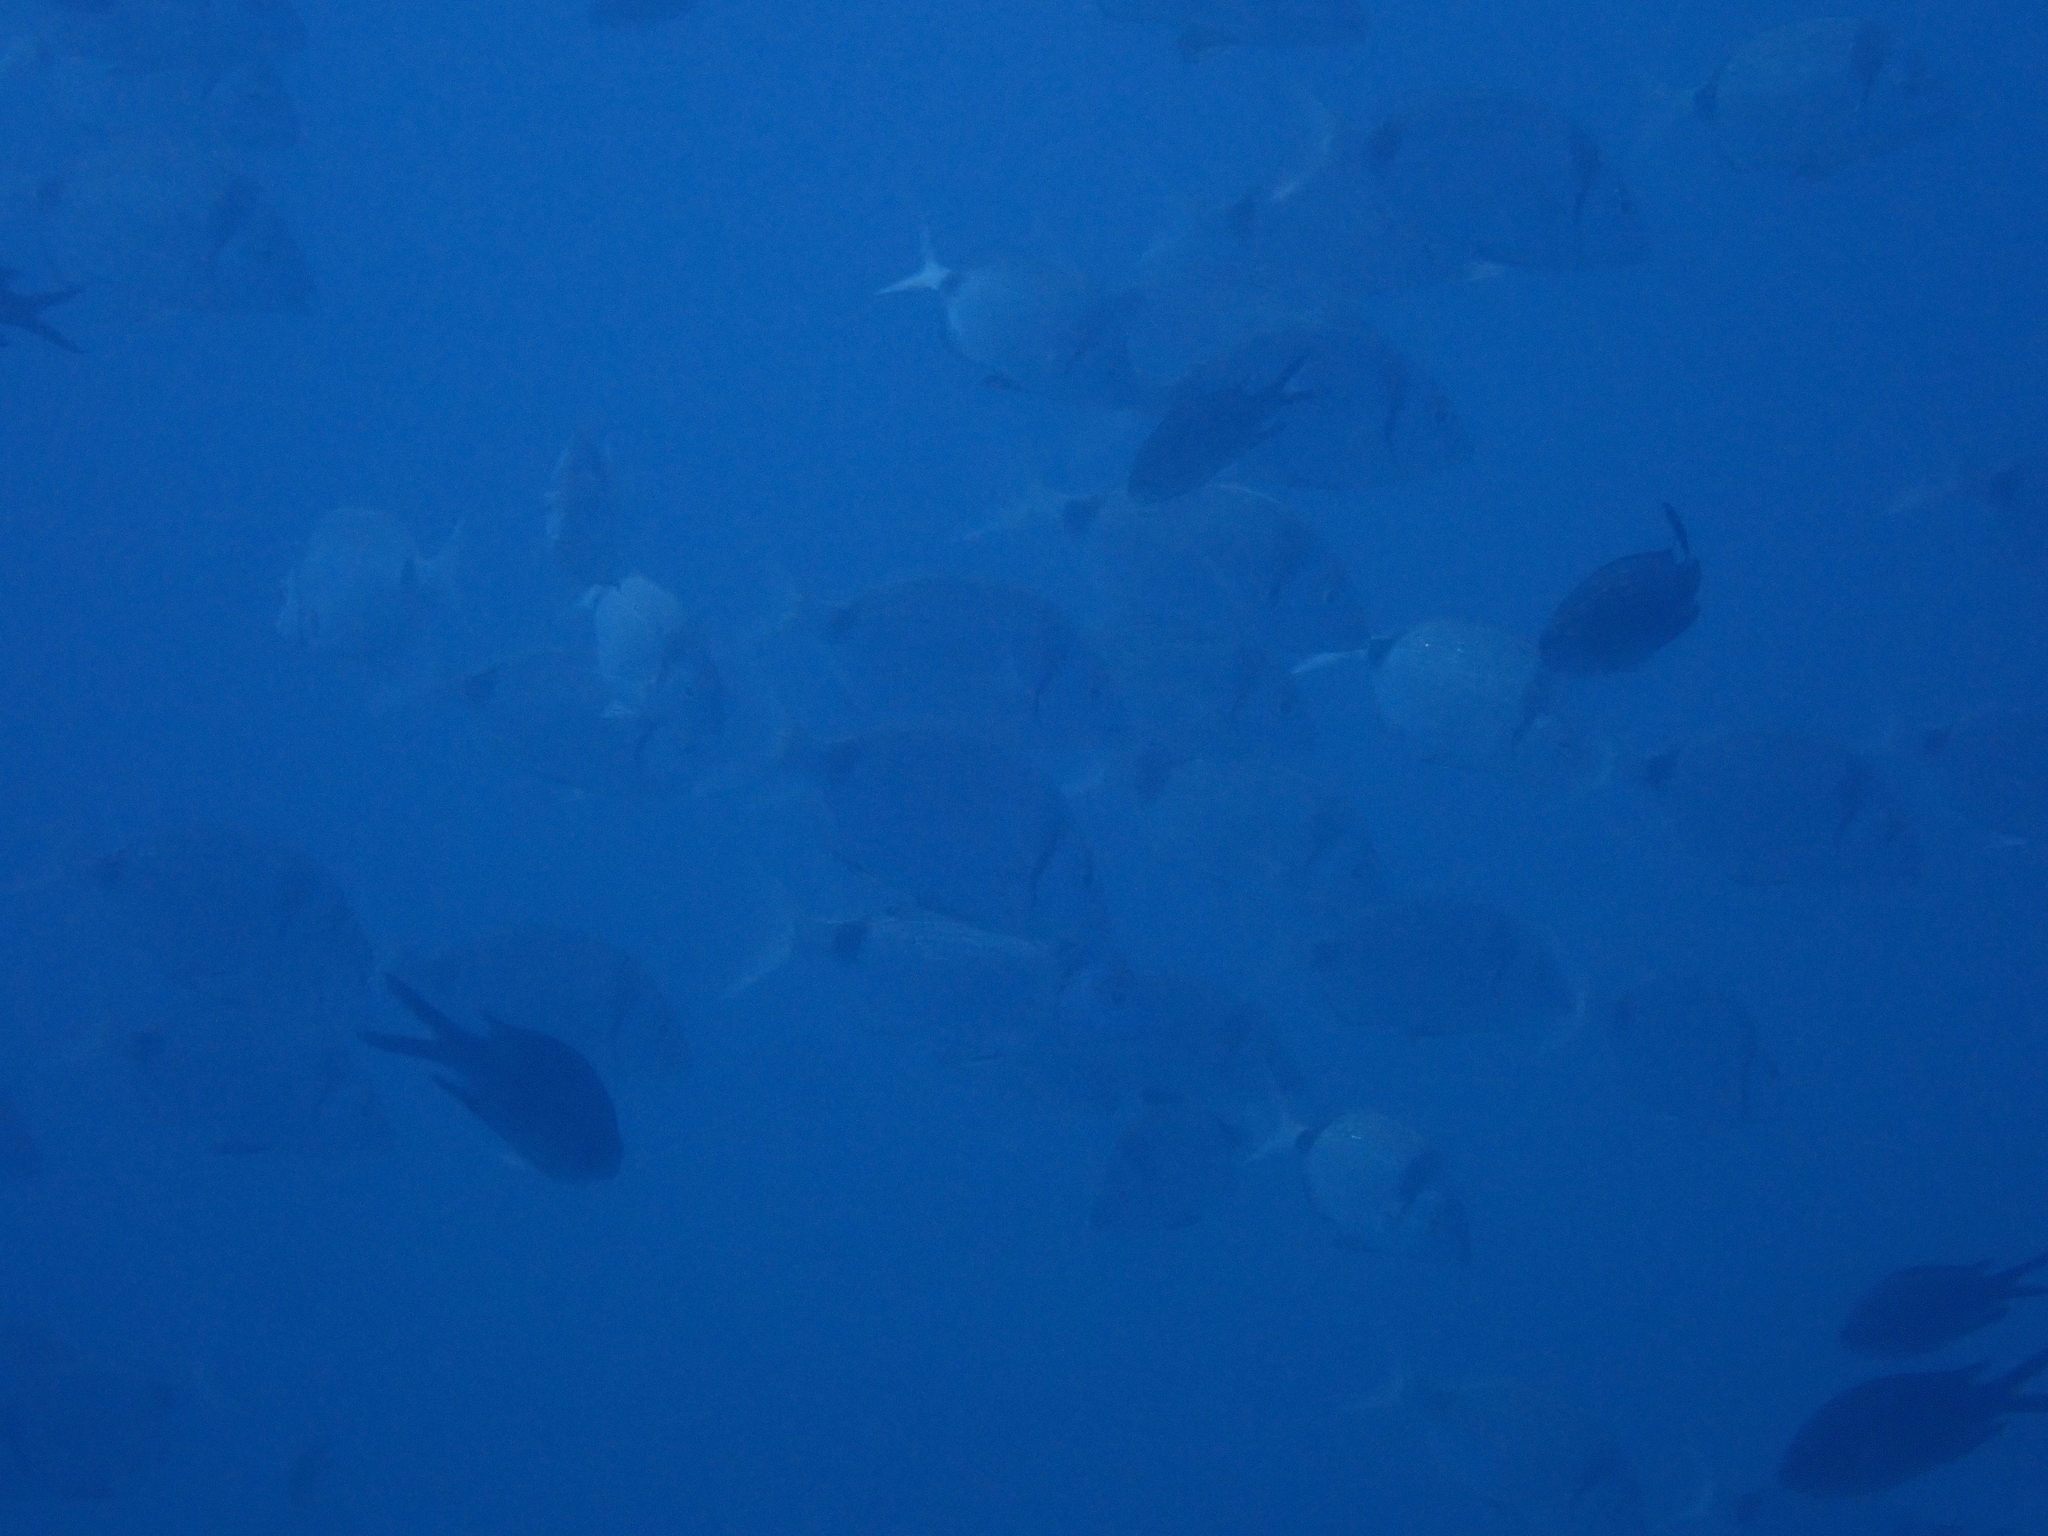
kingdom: Animalia
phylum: Chordata
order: Perciformes
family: Sparidae
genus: Diplodus
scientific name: Diplodus vulgaris
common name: Common two-banded seabream
